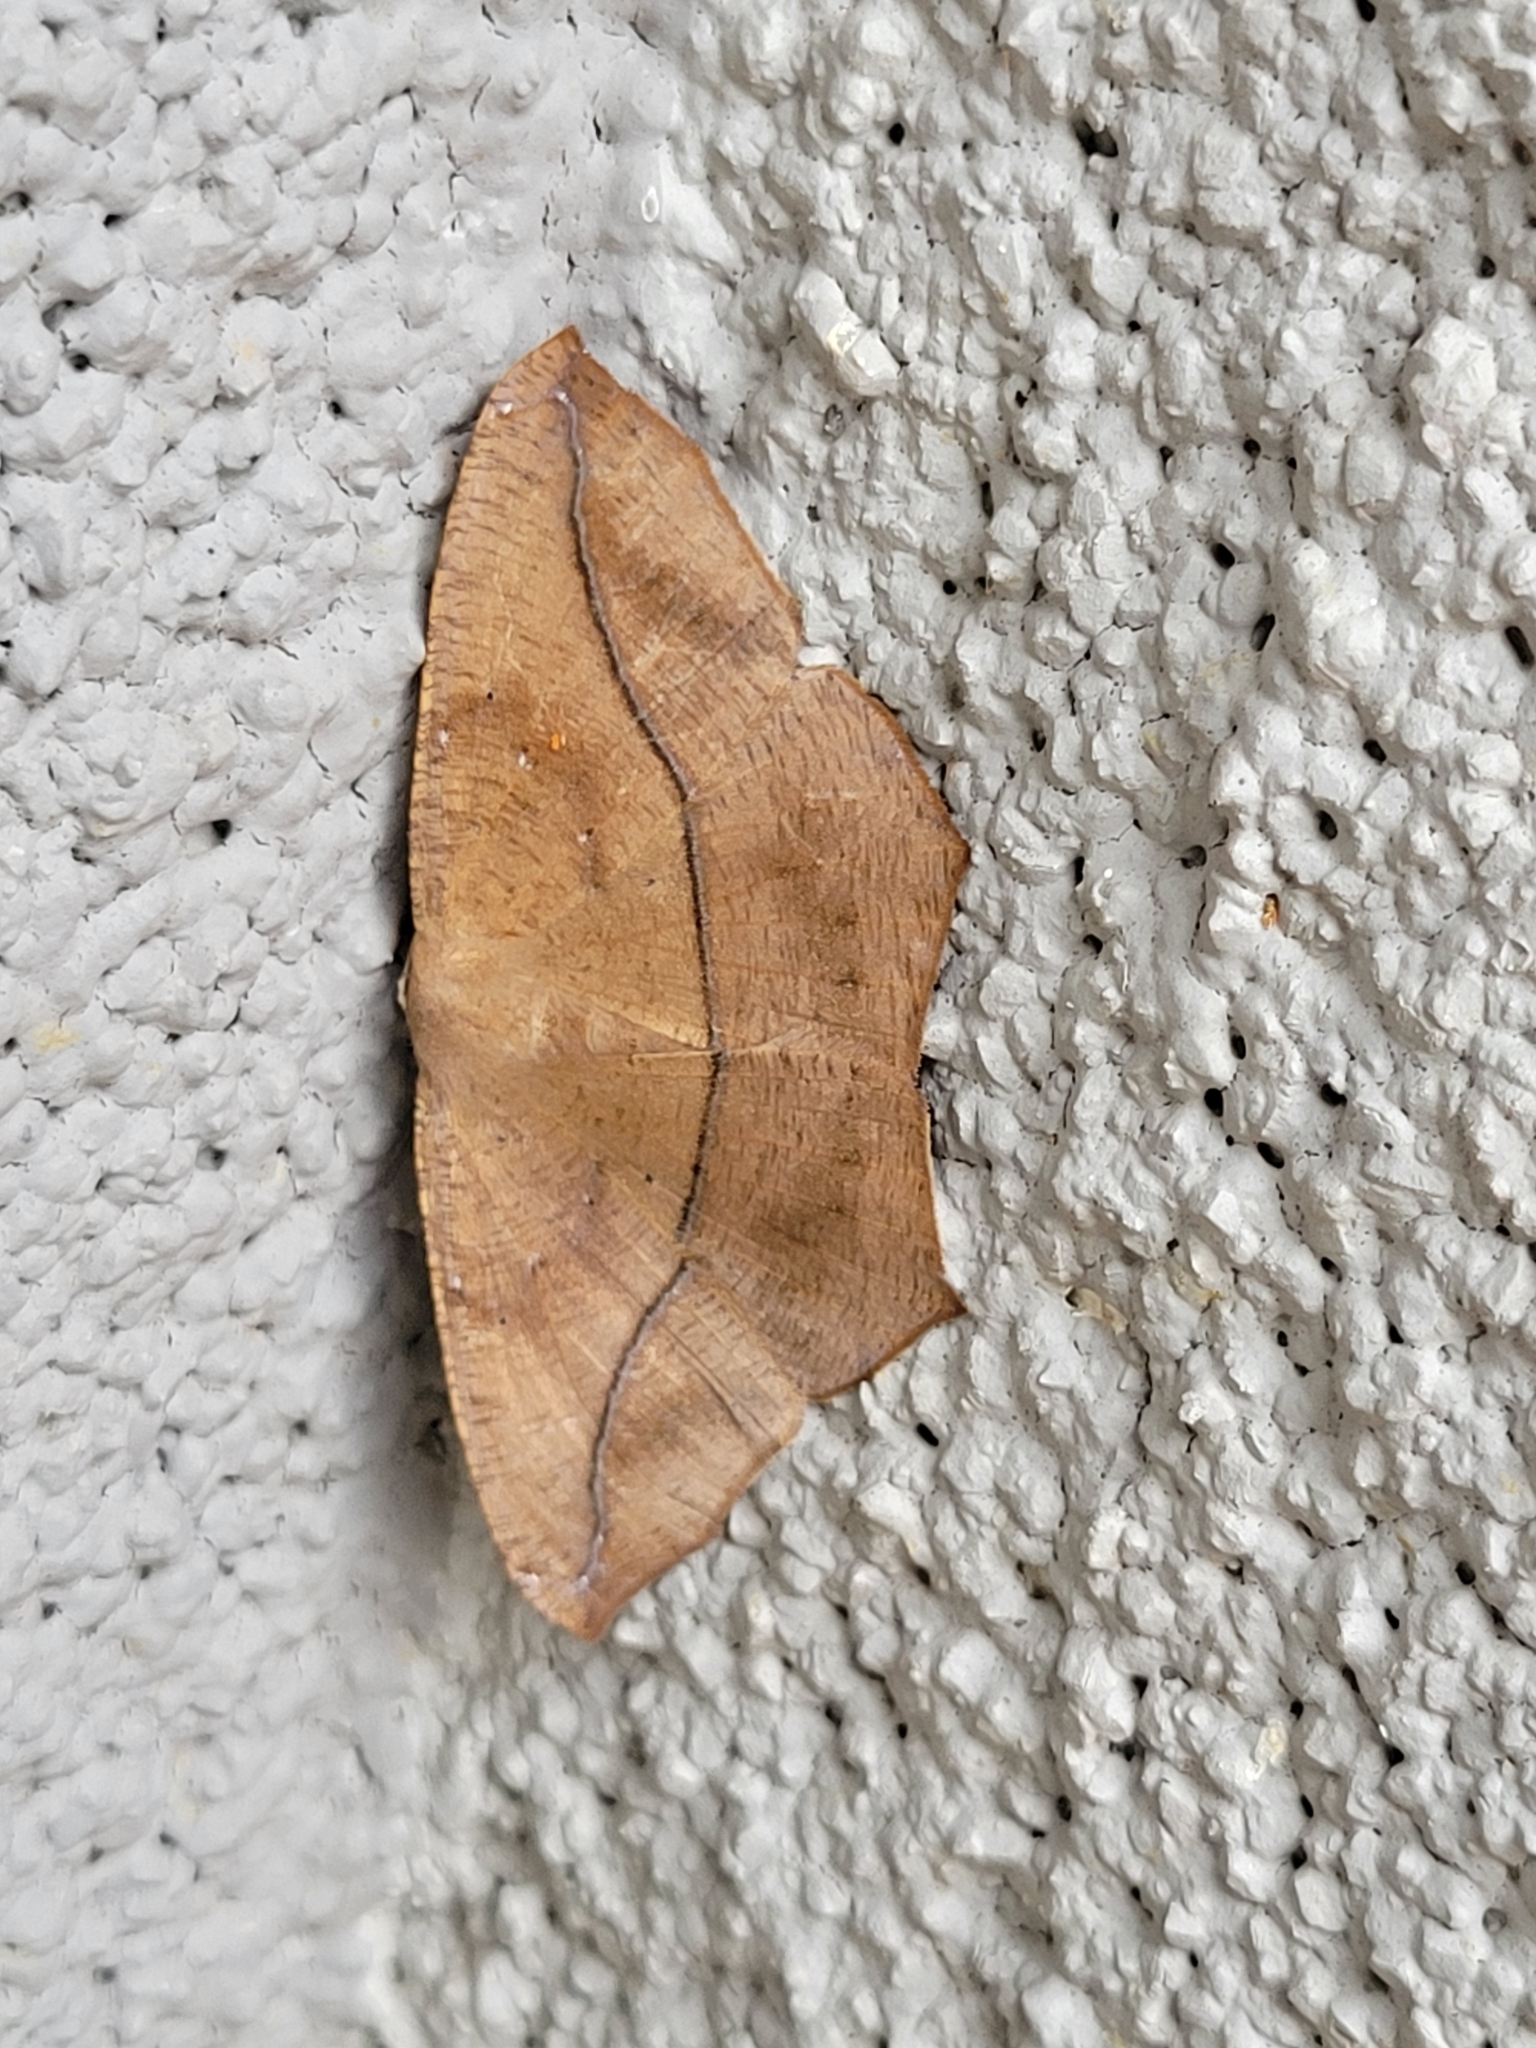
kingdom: Animalia
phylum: Arthropoda
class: Insecta
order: Lepidoptera
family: Geometridae
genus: Prochoerodes
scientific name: Prochoerodes lineola
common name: Large maple spanworm
